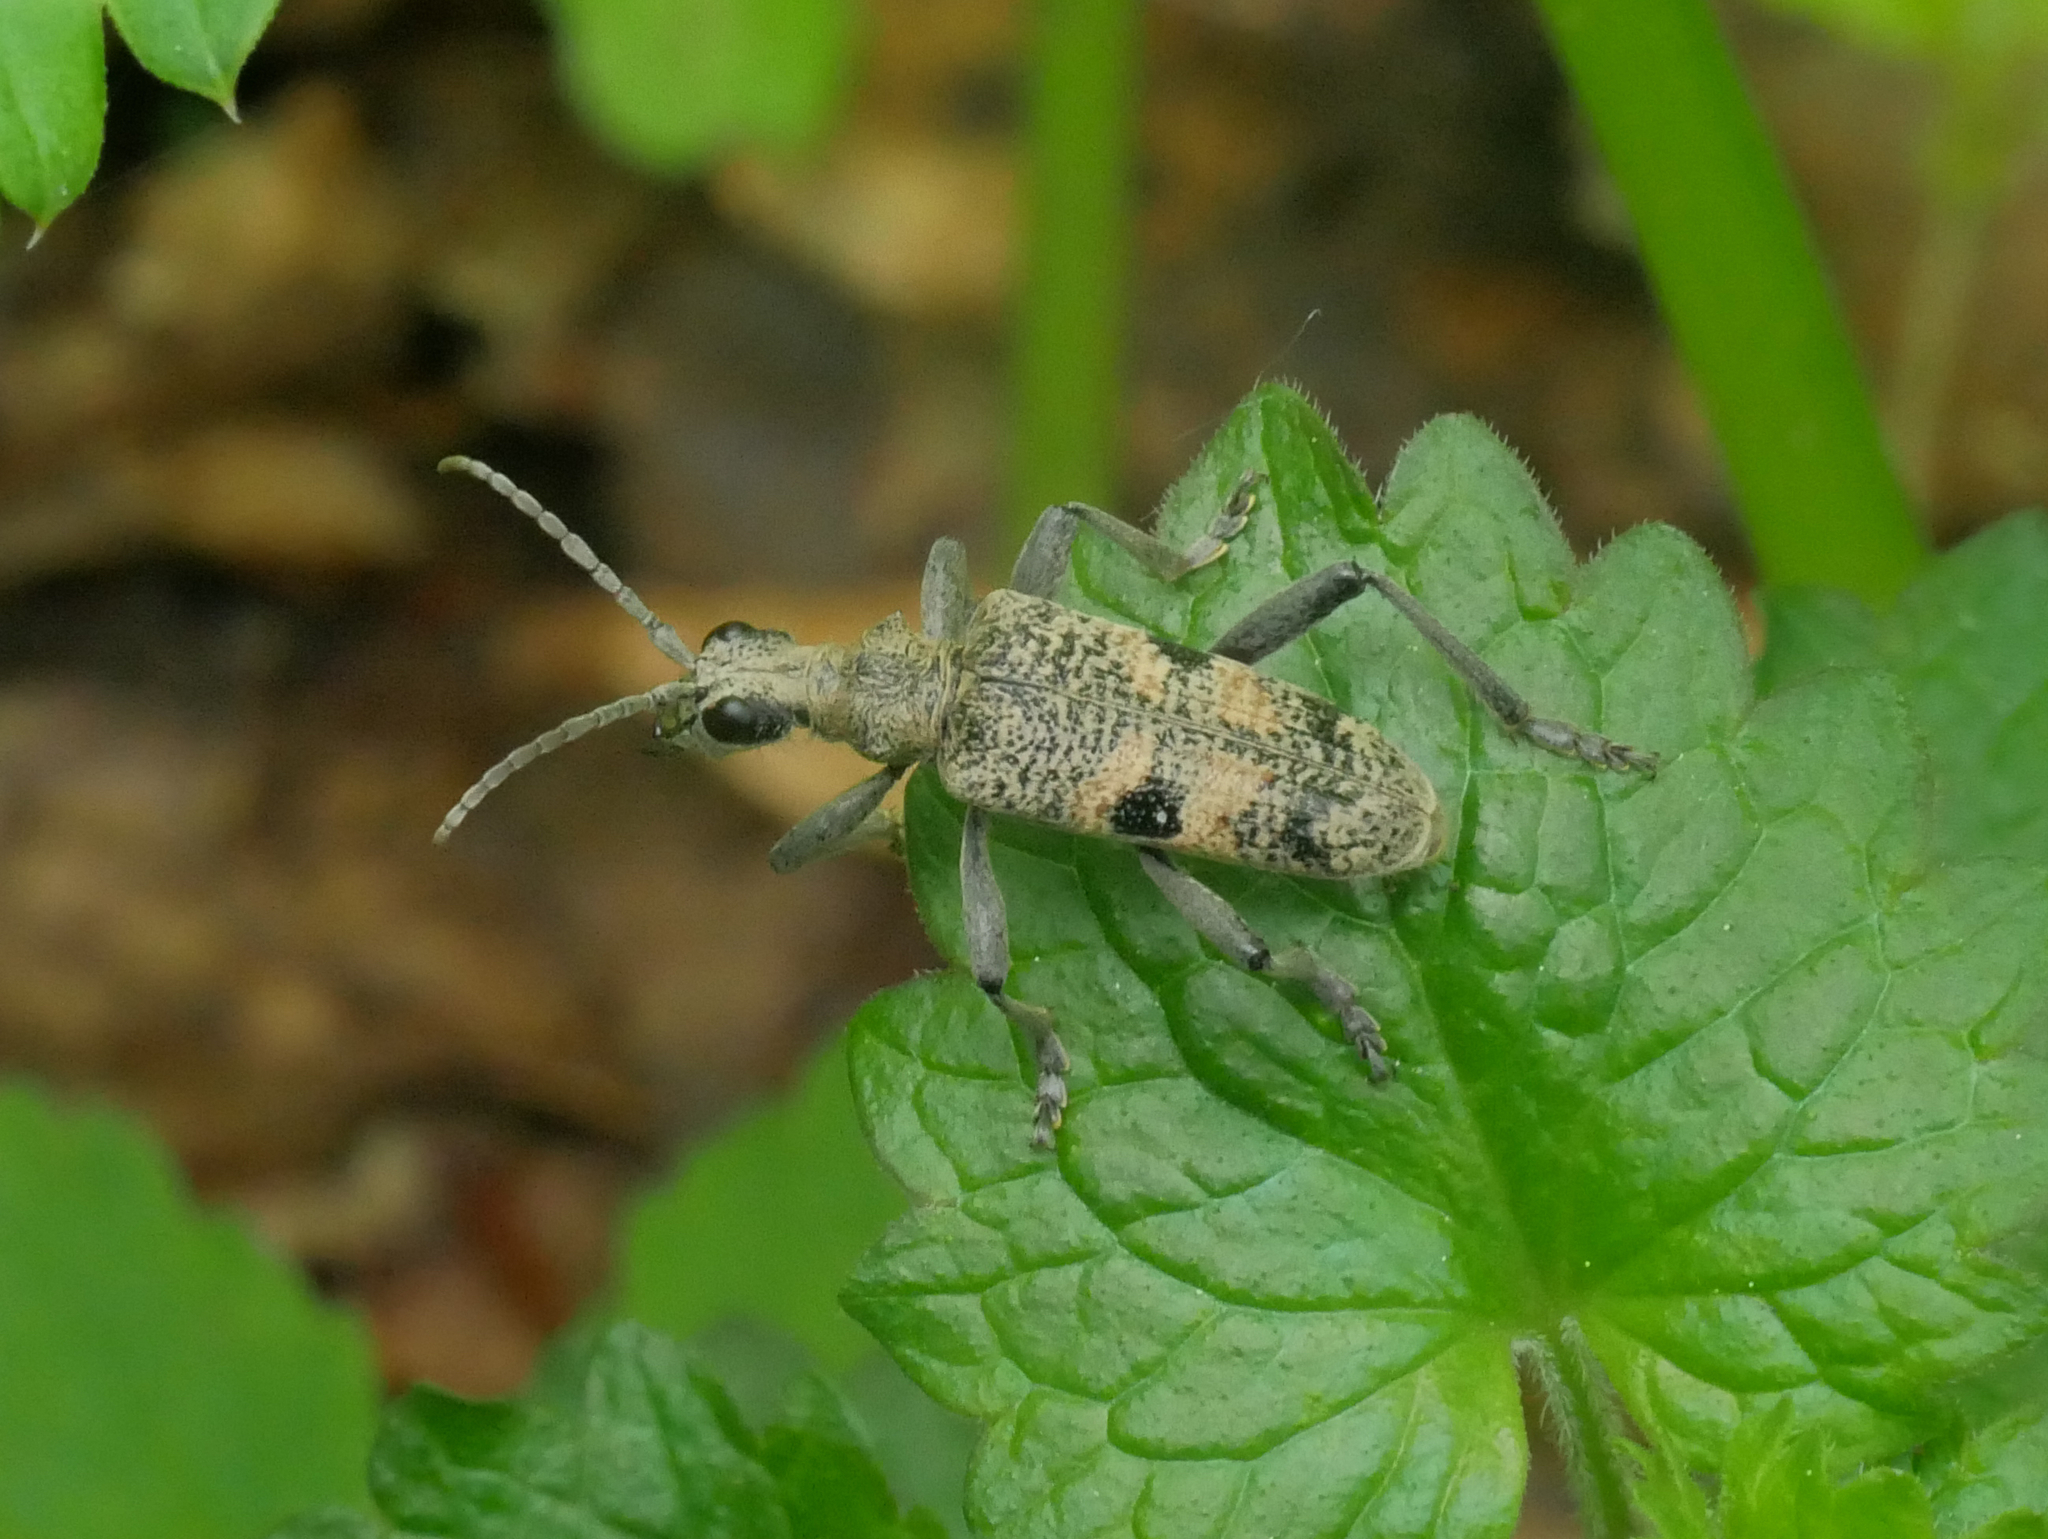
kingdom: Animalia
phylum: Arthropoda
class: Insecta
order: Coleoptera
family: Cerambycidae
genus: Rhagium
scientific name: Rhagium mordax
